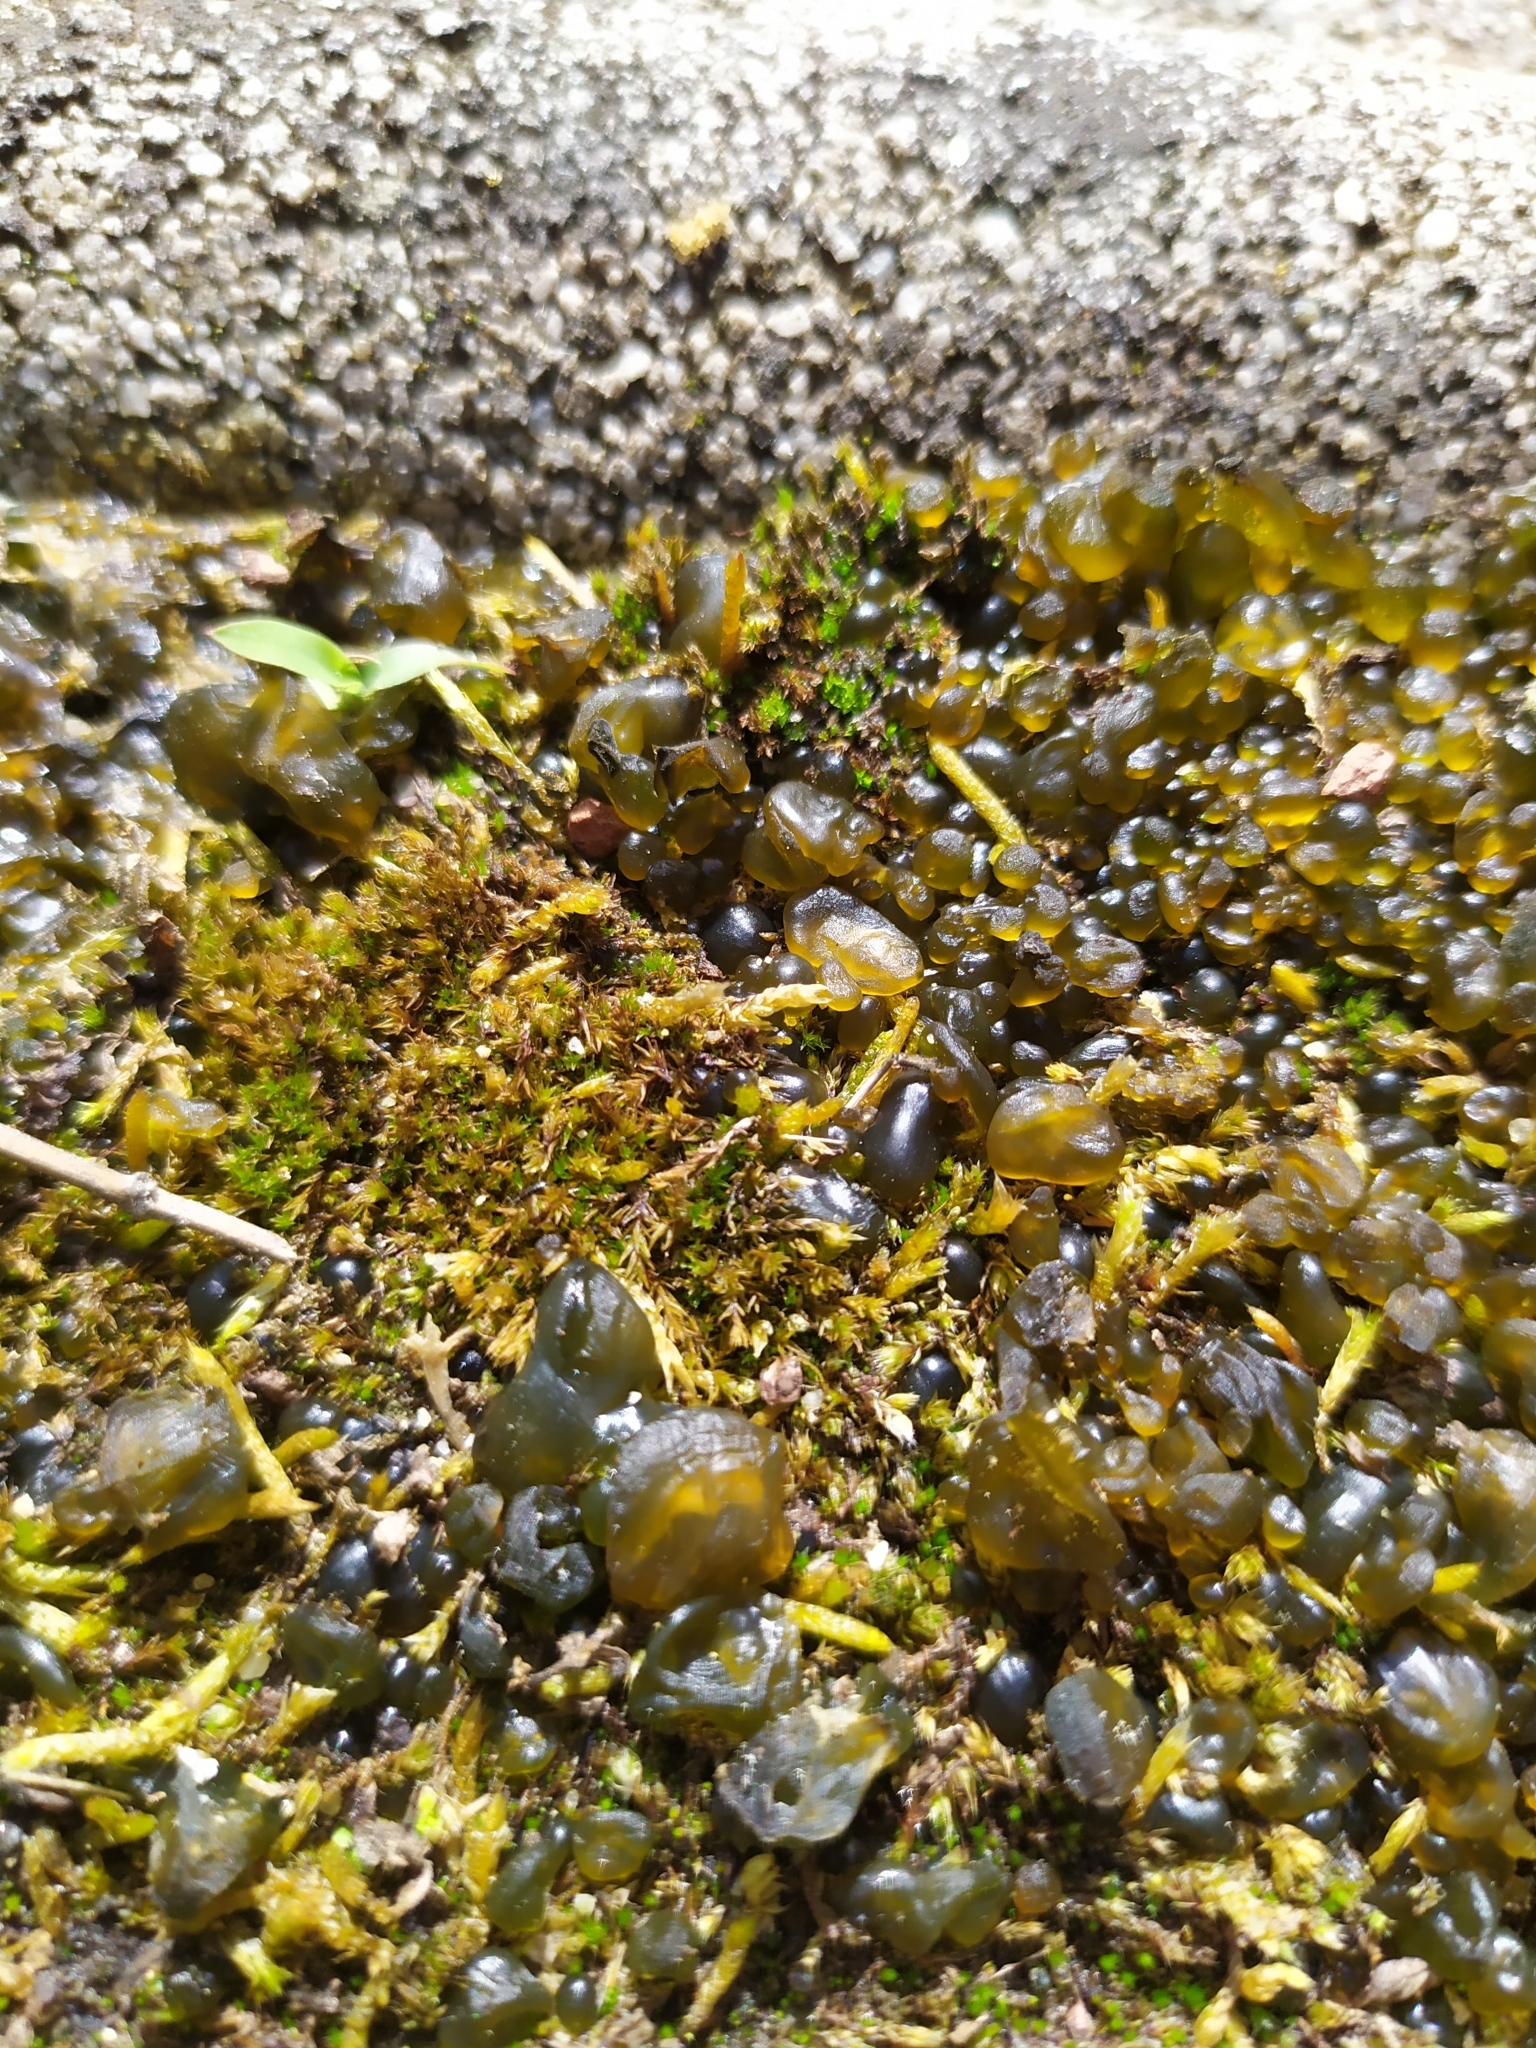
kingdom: Bacteria
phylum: Cyanobacteria
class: Cyanobacteriia
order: Cyanobacteriales
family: Nostocaceae
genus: Nostoc
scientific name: Nostoc commune
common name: Star jelly
